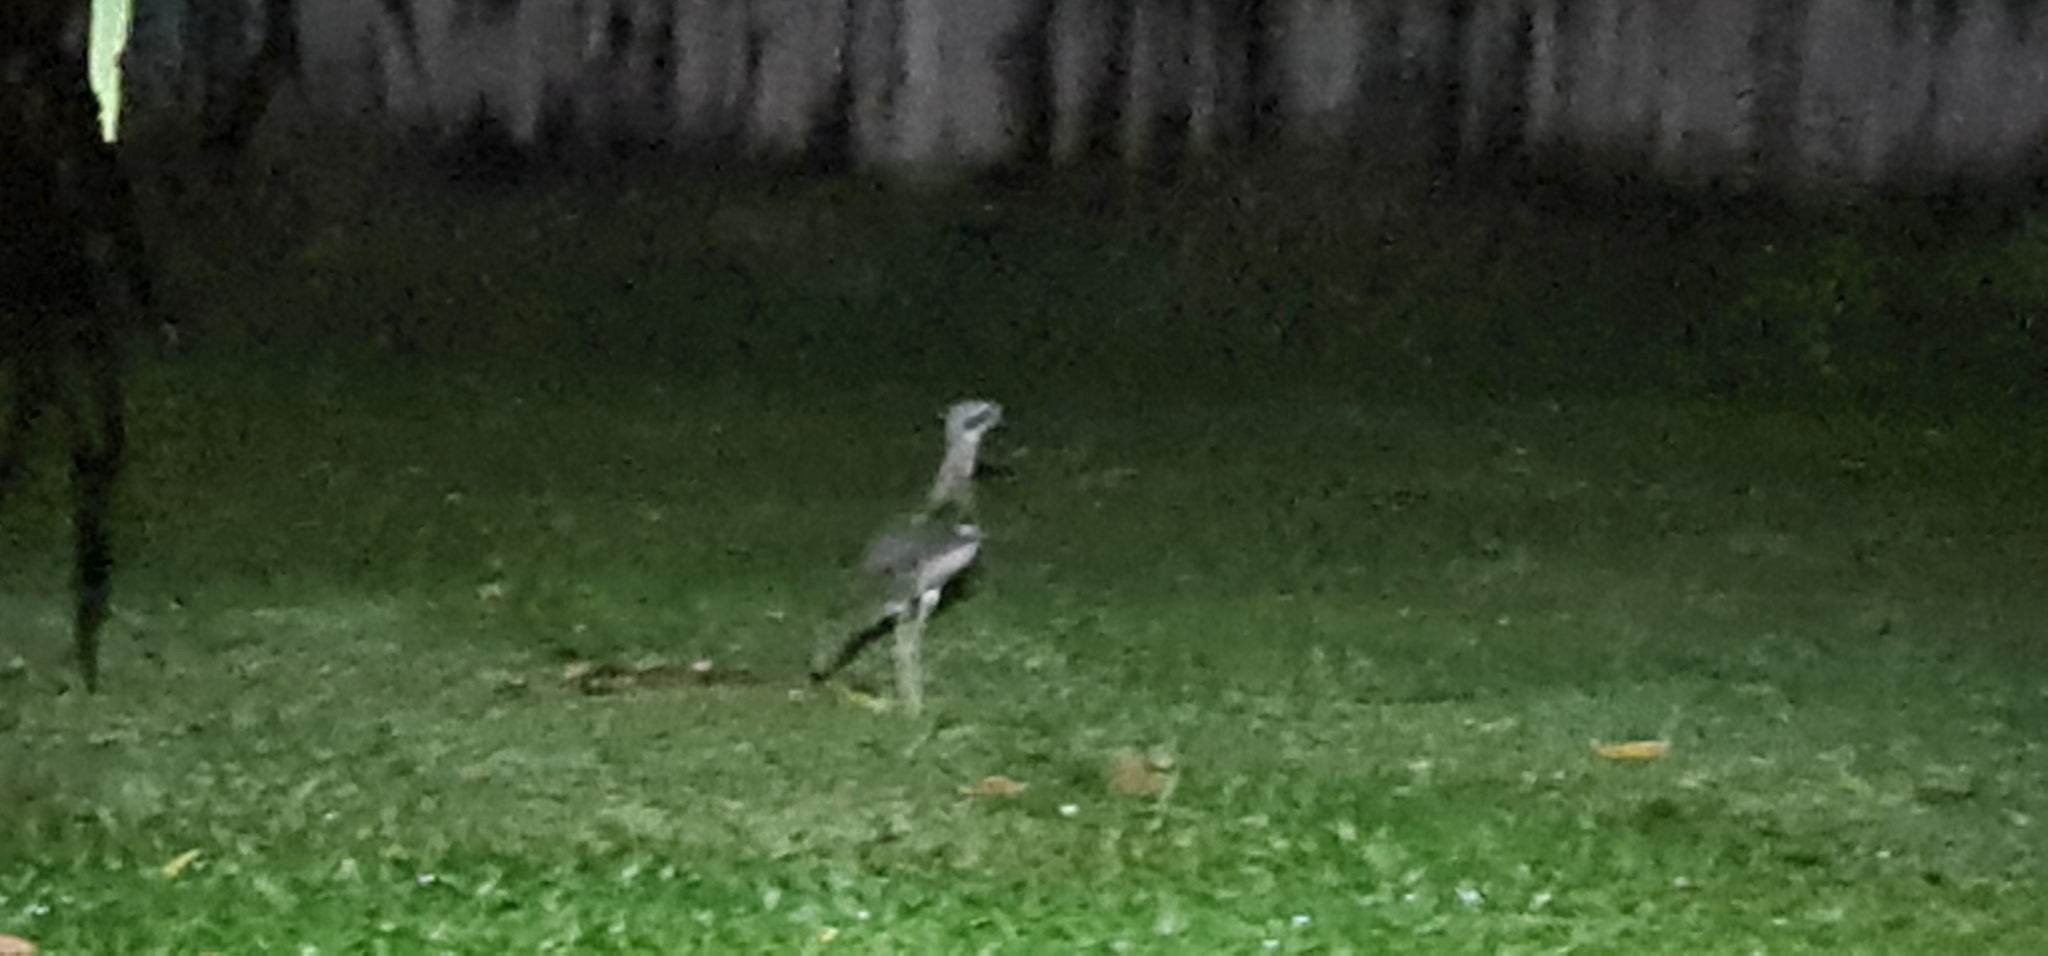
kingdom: Animalia
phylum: Chordata
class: Aves
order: Charadriiformes
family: Burhinidae
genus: Burhinus
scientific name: Burhinus grallarius
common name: Bush stone-curlew
